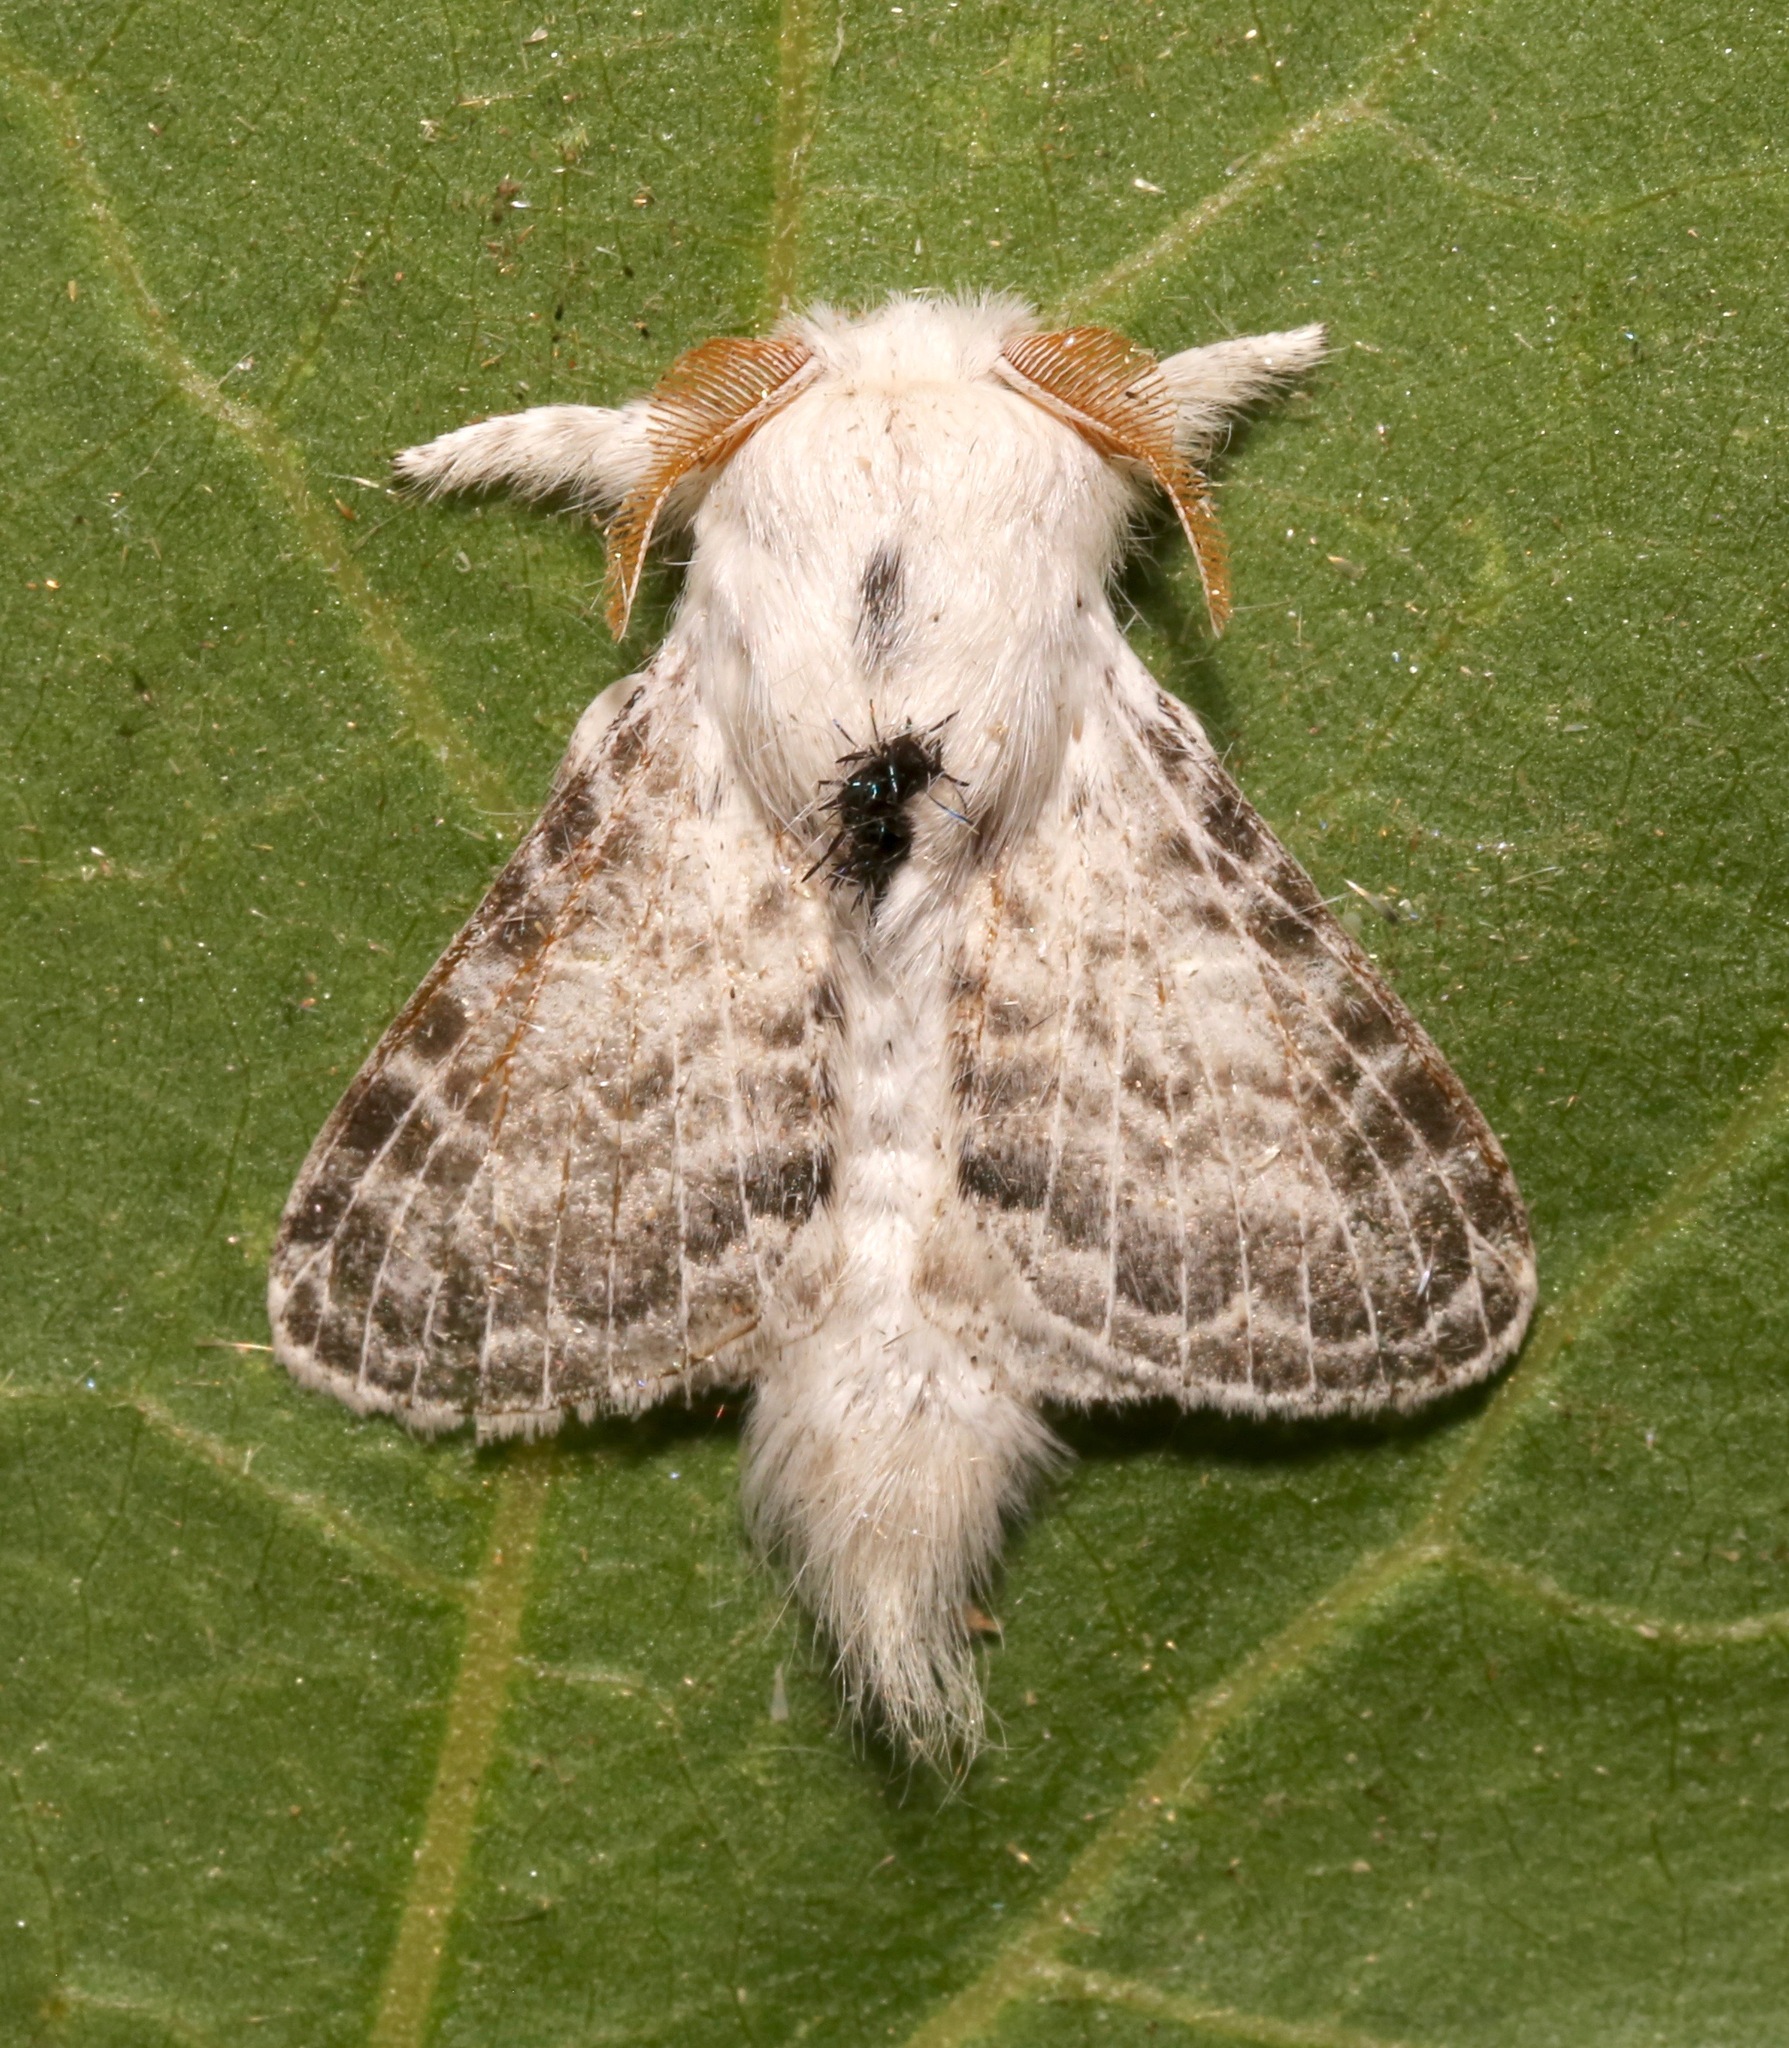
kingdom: Animalia
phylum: Arthropoda
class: Insecta
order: Lepidoptera
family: Lasiocampidae
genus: Apotolype
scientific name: Apotolype brevicrista
